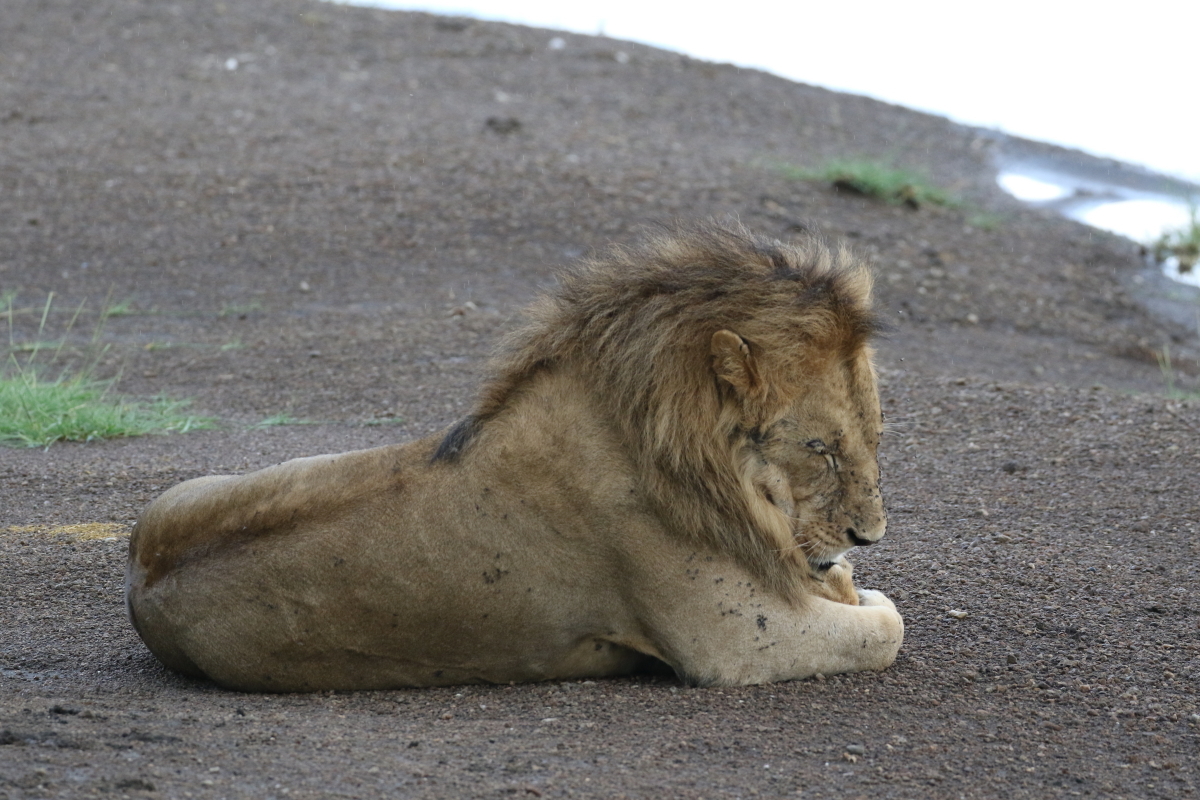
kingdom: Animalia
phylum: Chordata
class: Mammalia
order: Carnivora
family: Felidae
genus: Panthera
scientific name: Panthera leo
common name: Lion
